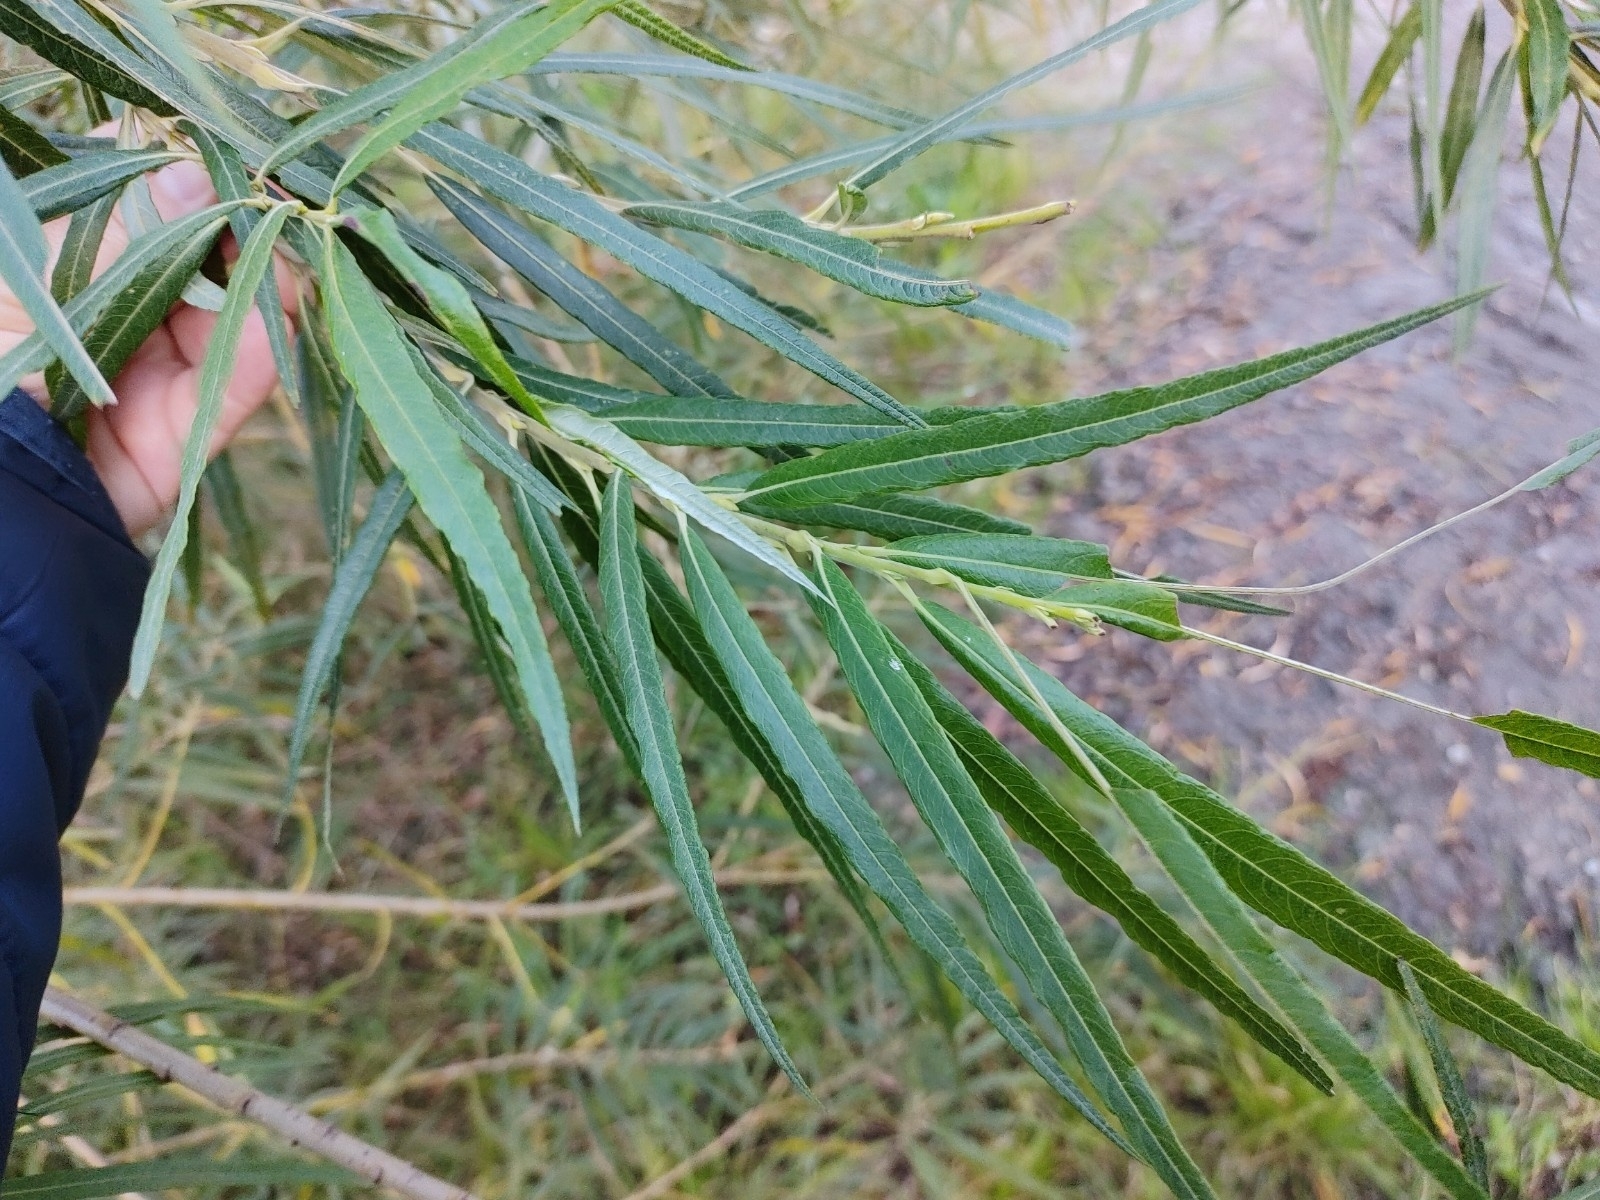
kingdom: Plantae
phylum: Tracheophyta
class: Magnoliopsida
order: Malpighiales
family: Salicaceae
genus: Salix
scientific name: Salix viminalis
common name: Osier
